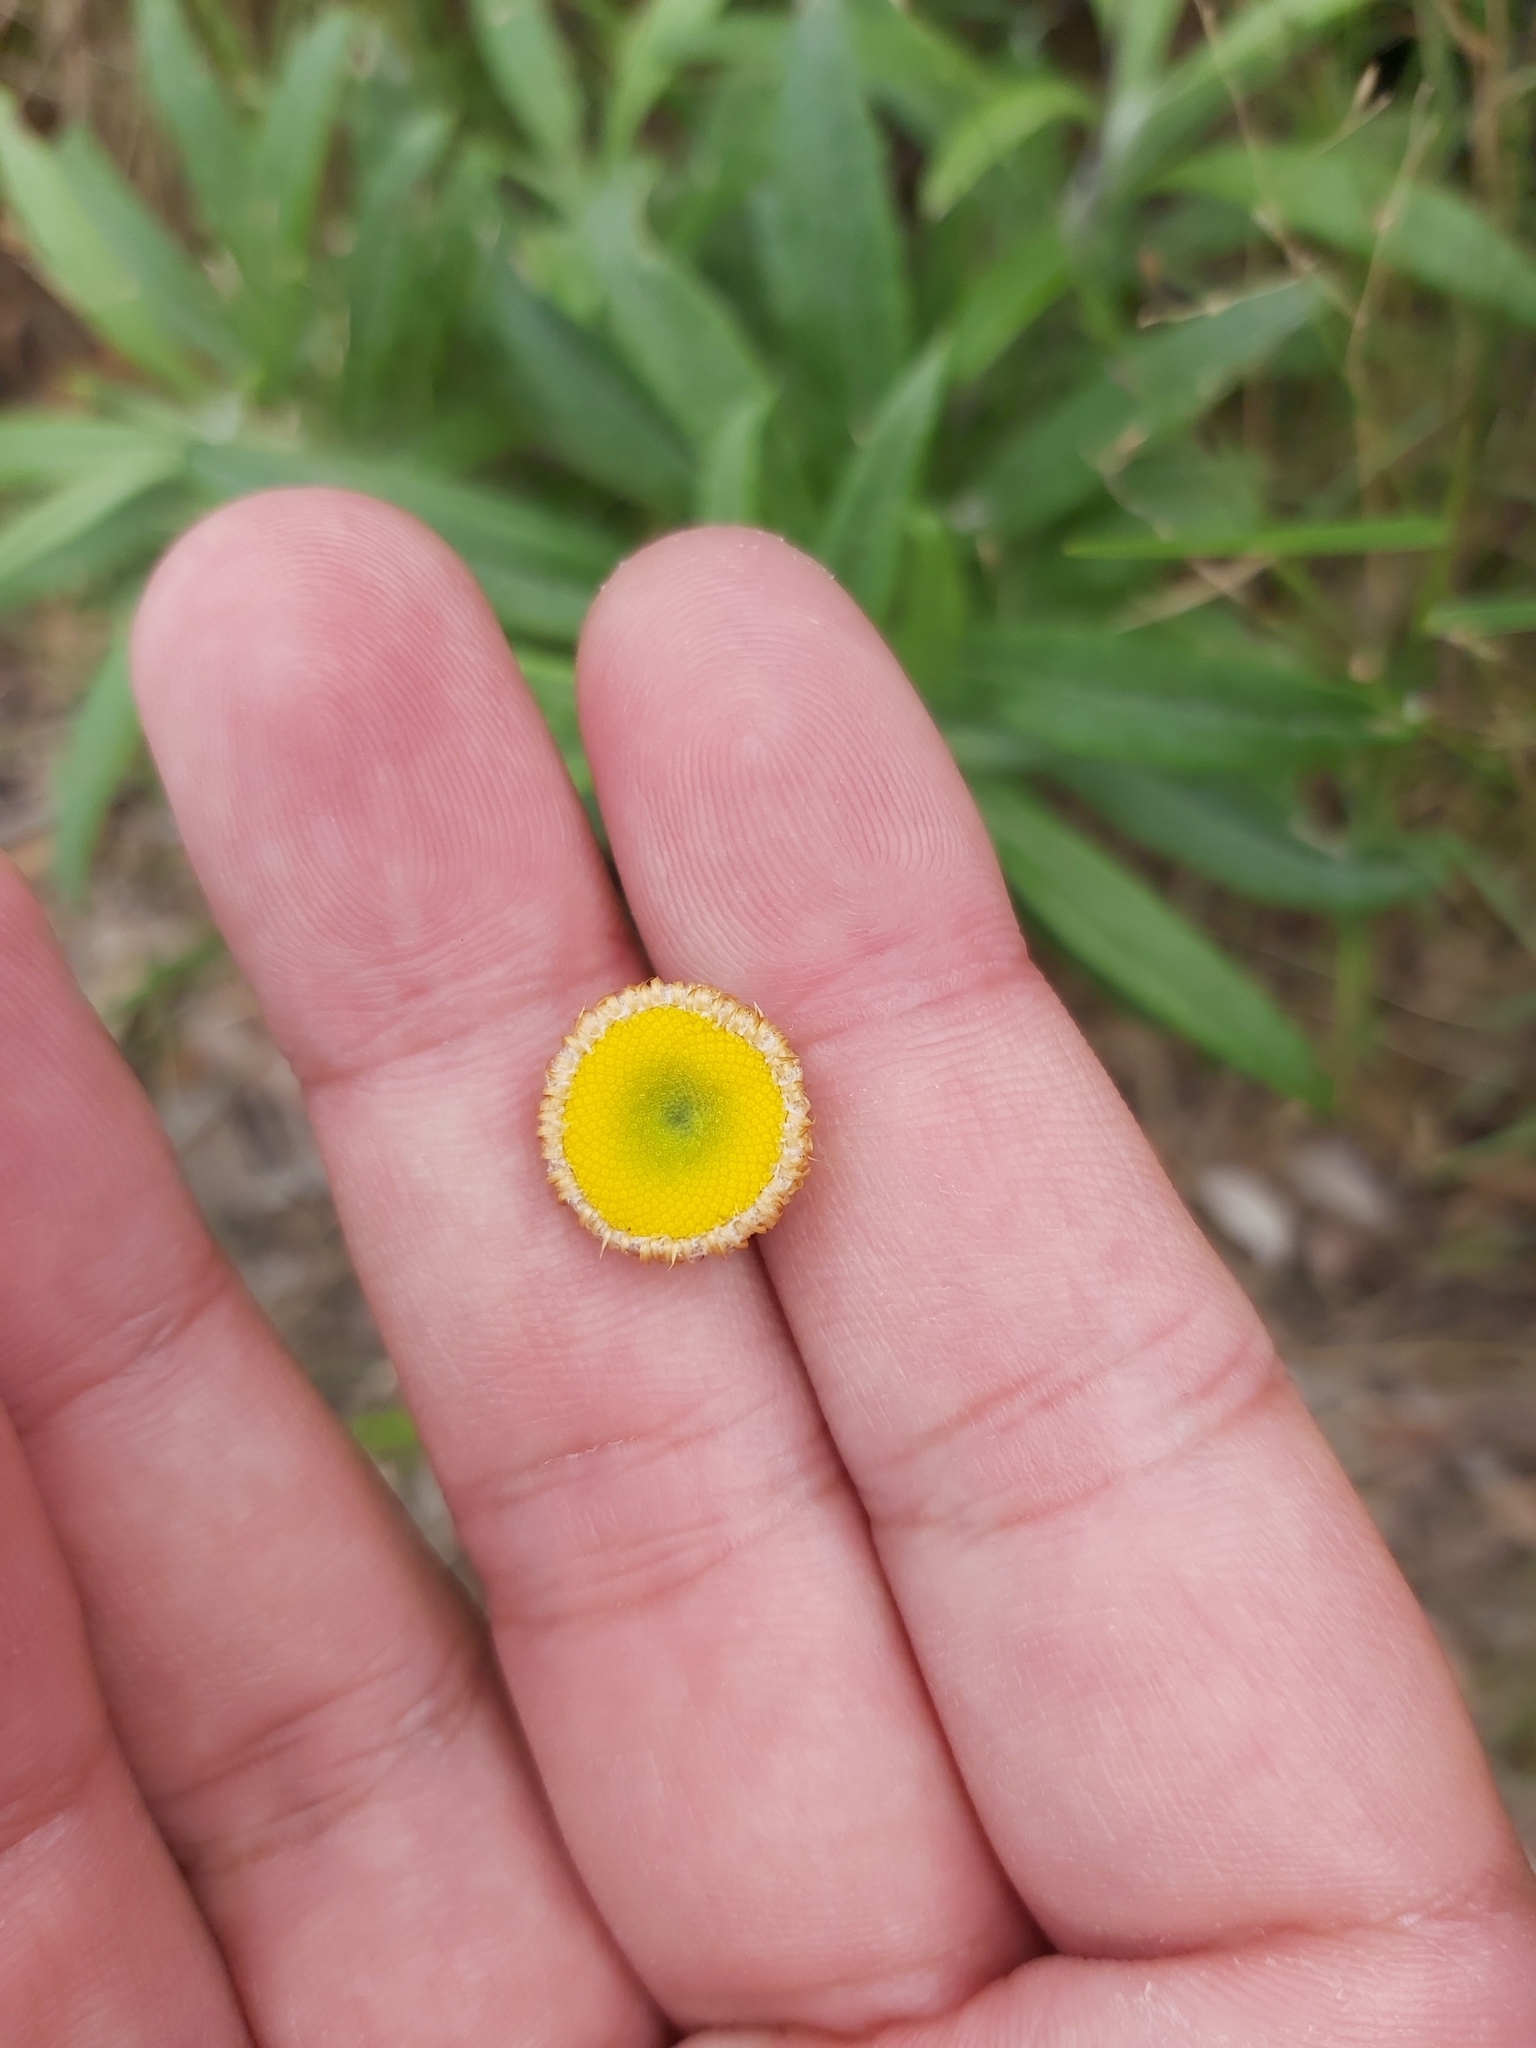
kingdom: Plantae
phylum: Tracheophyta
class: Magnoliopsida
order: Asterales
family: Asteraceae
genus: Coronidium
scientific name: Coronidium rupicola
